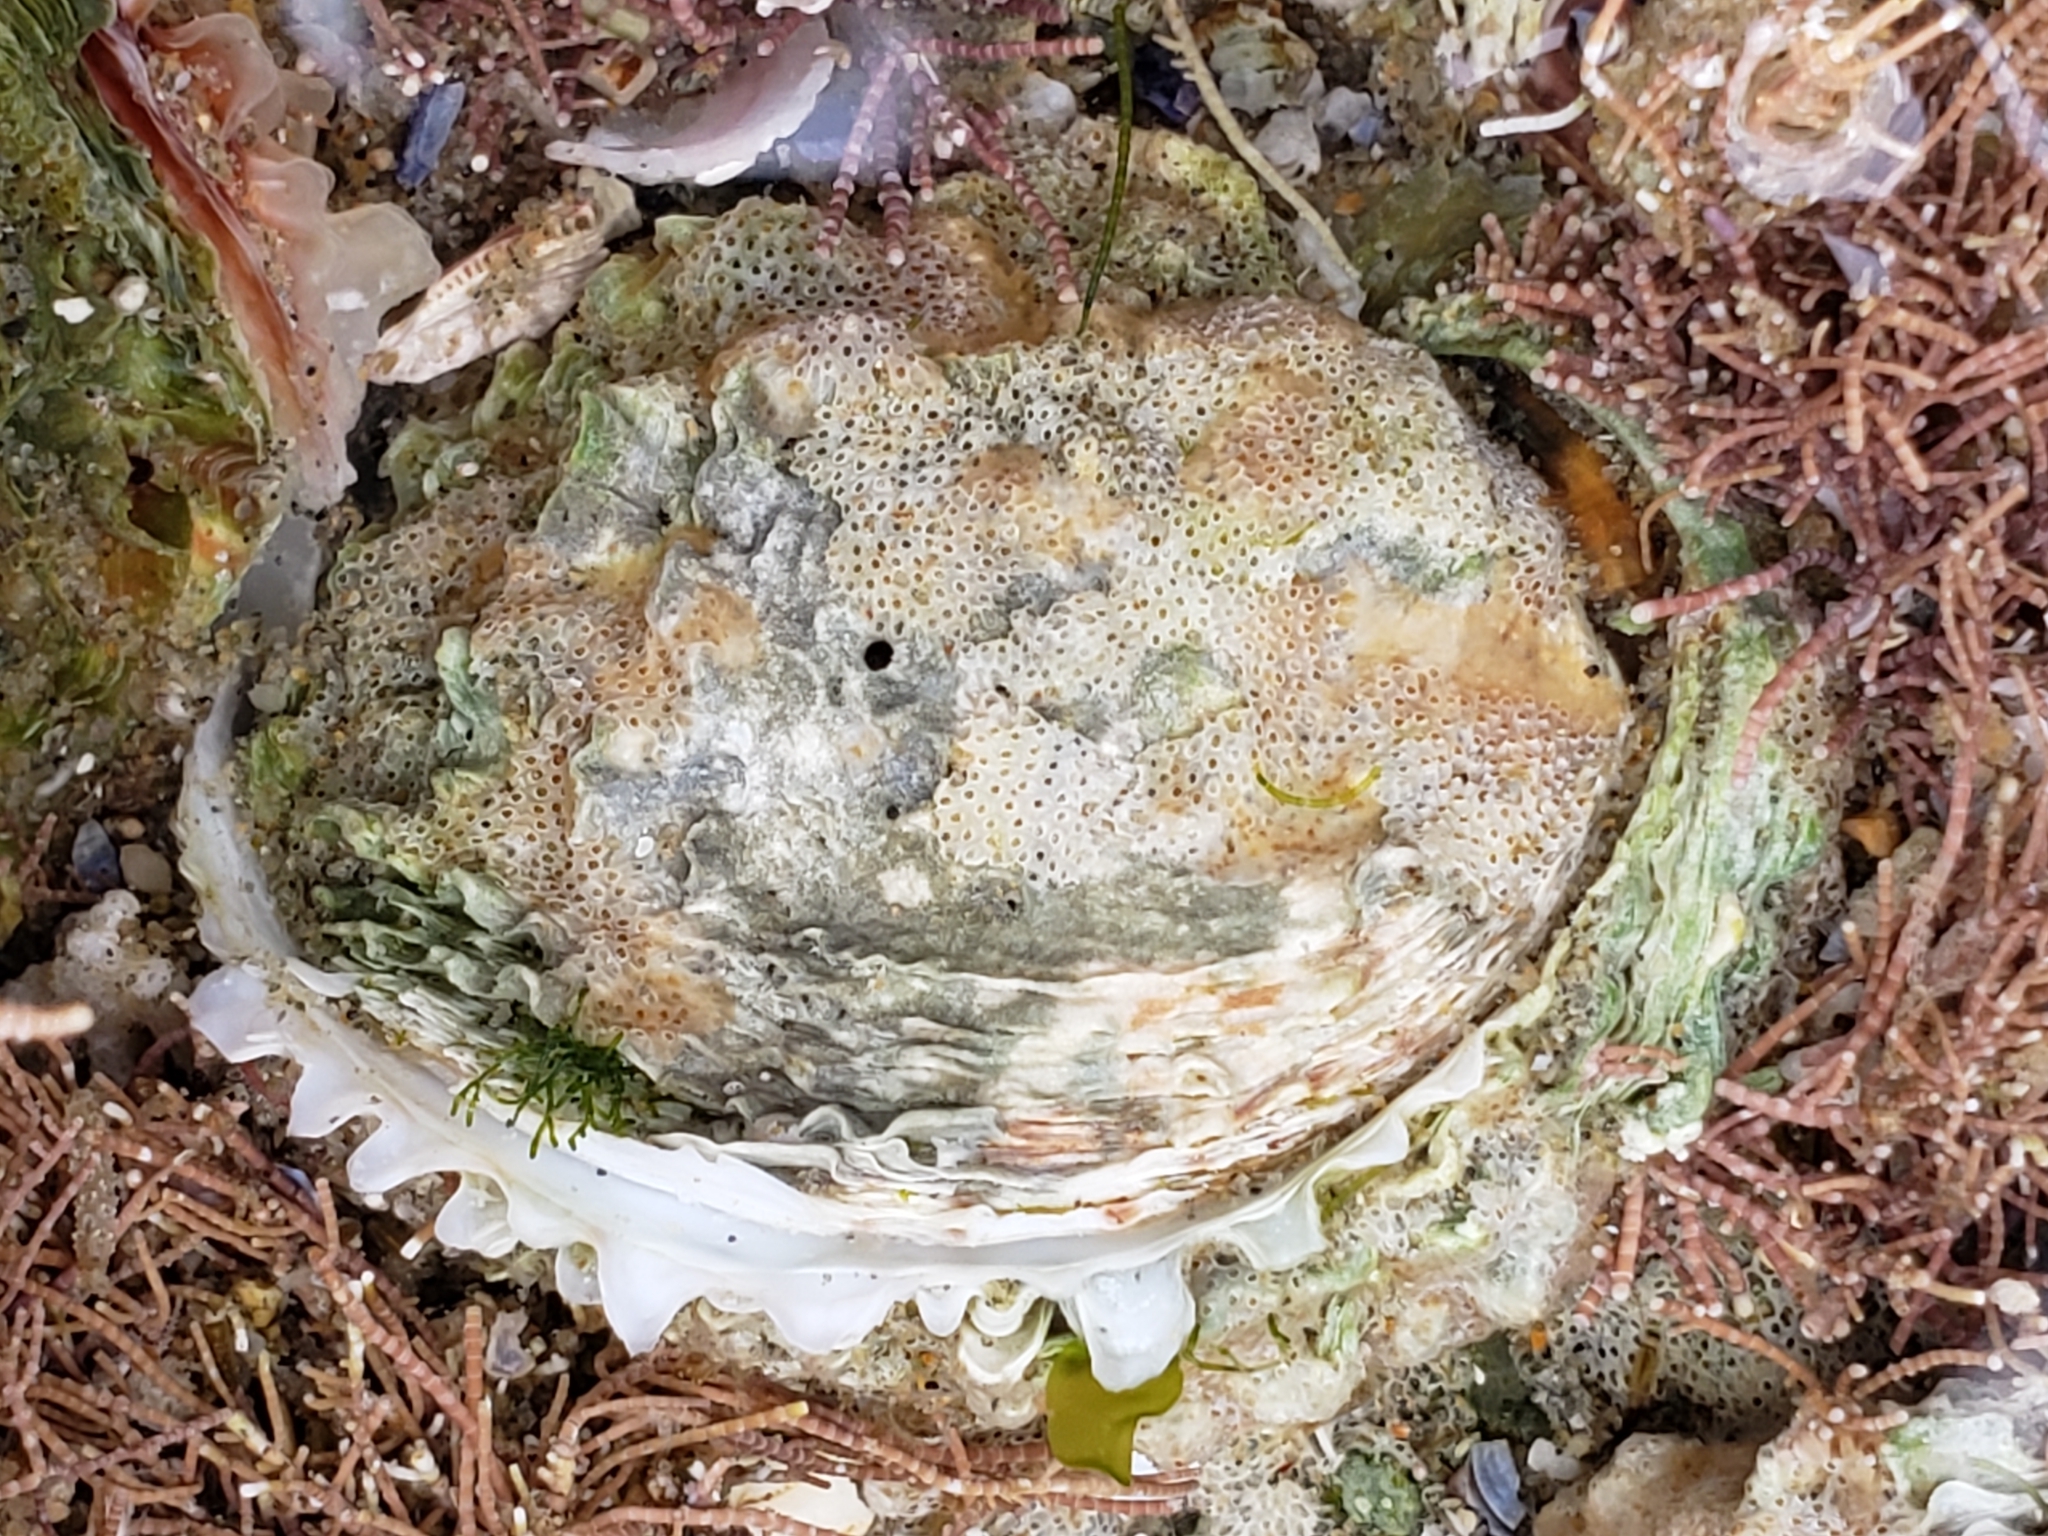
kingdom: Animalia
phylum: Mollusca
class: Bivalvia
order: Venerida
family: Chamidae
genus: Pseudochama
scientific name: Pseudochama exogyra
